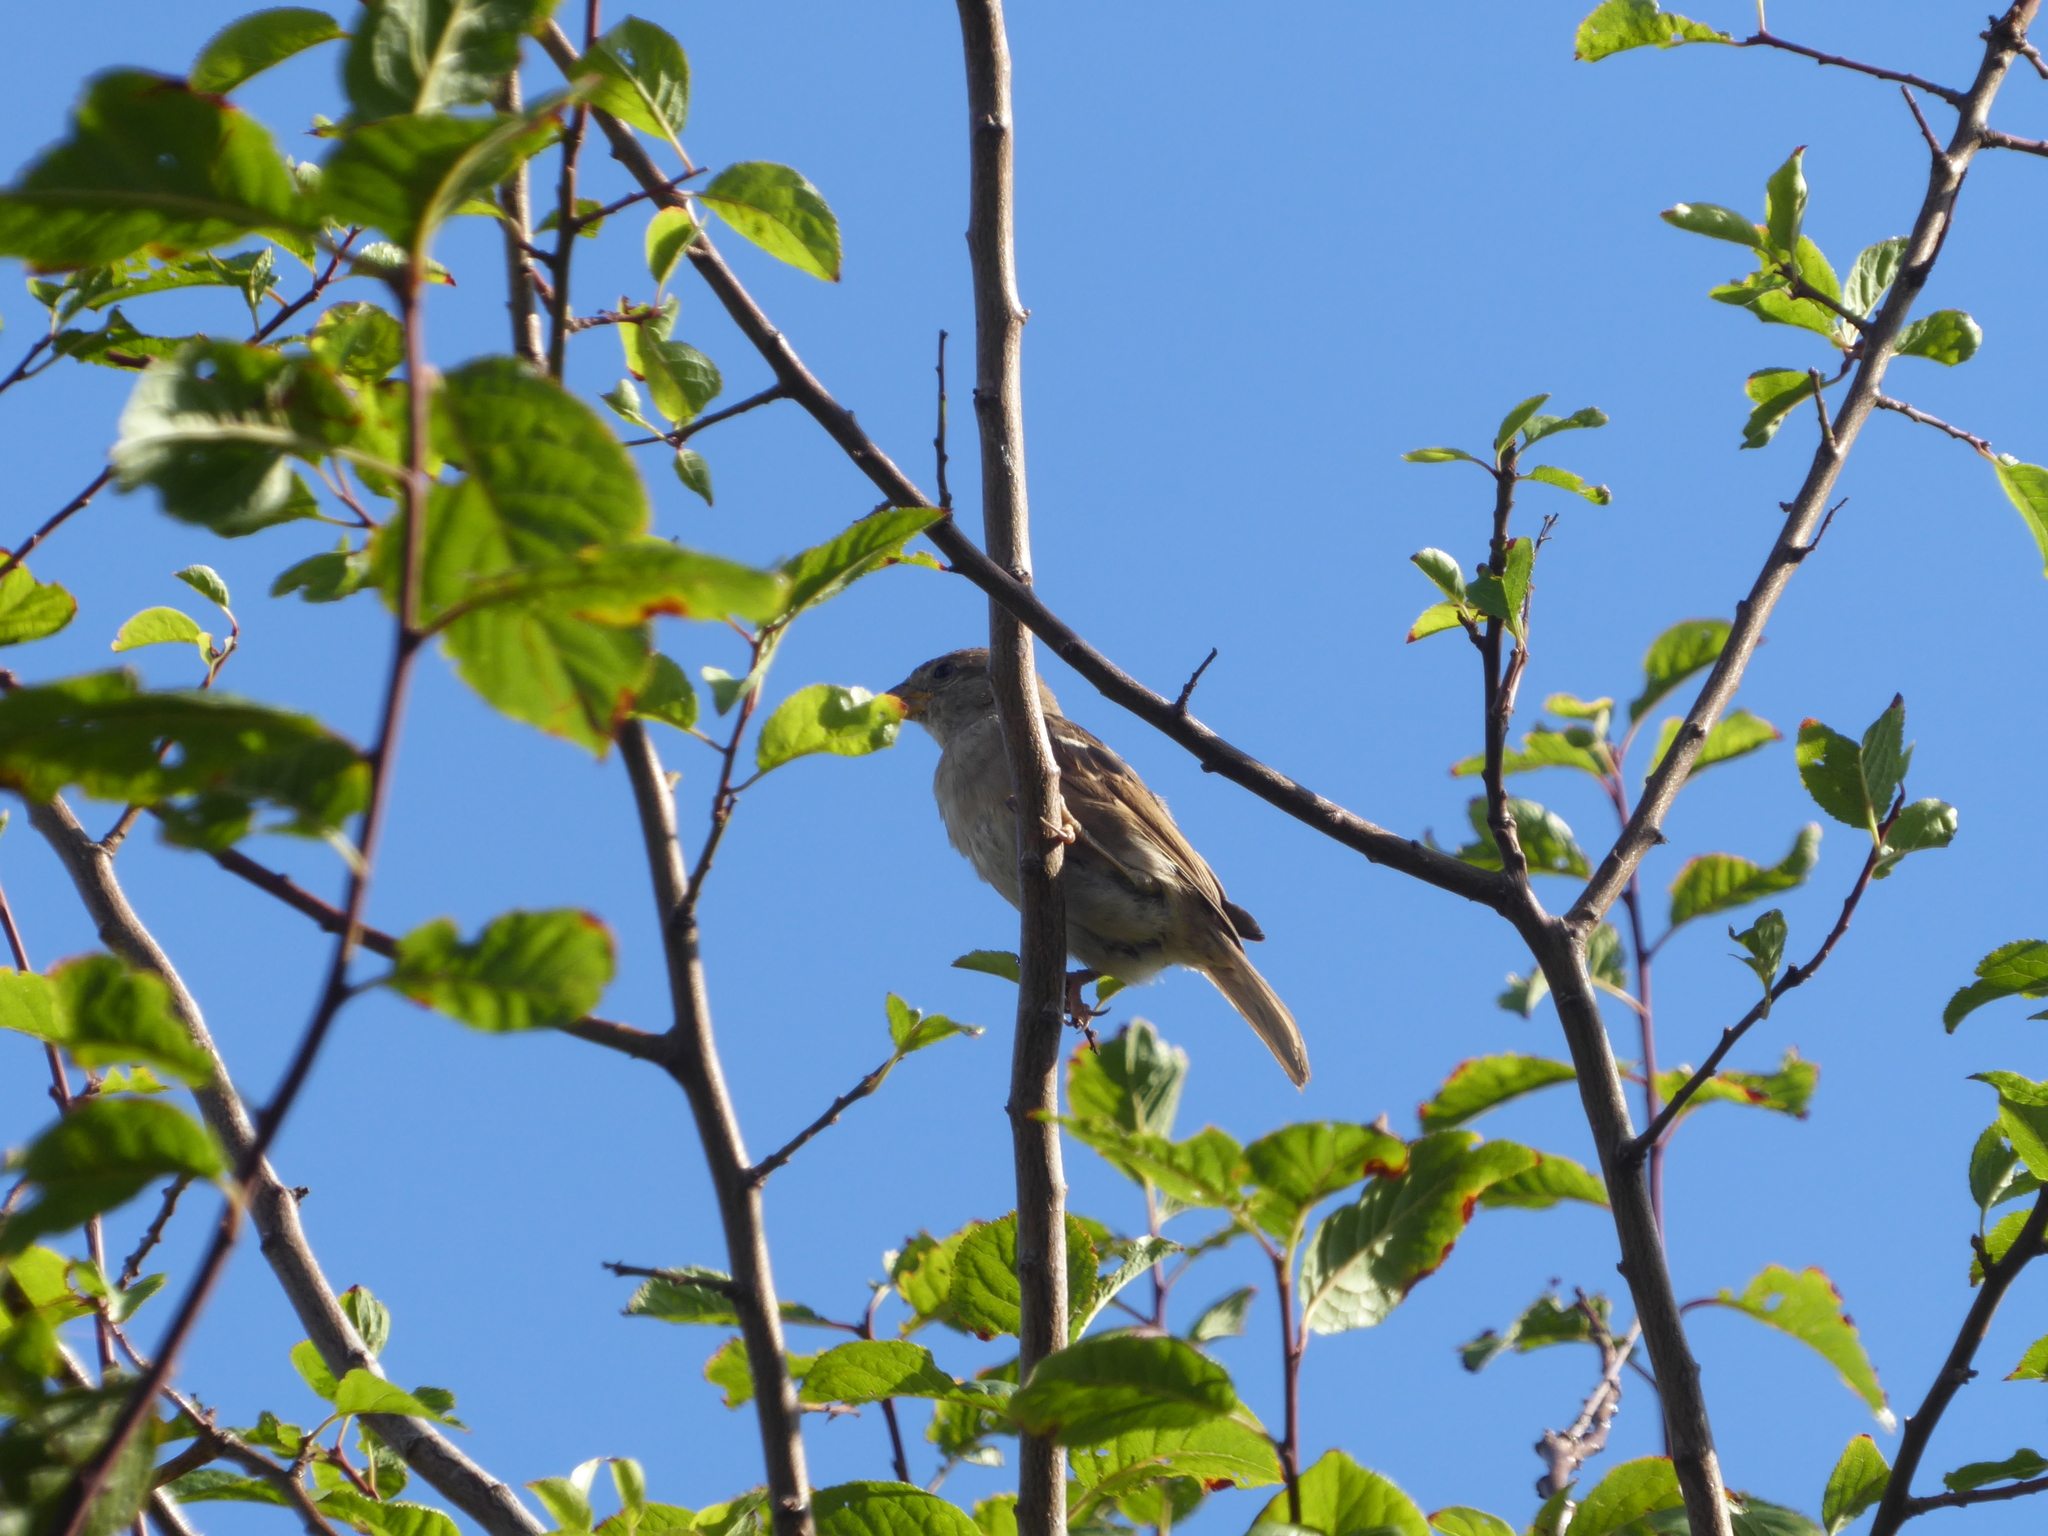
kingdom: Animalia
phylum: Chordata
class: Aves
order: Passeriformes
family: Passeridae
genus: Passer
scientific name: Passer domesticus
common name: House sparrow
